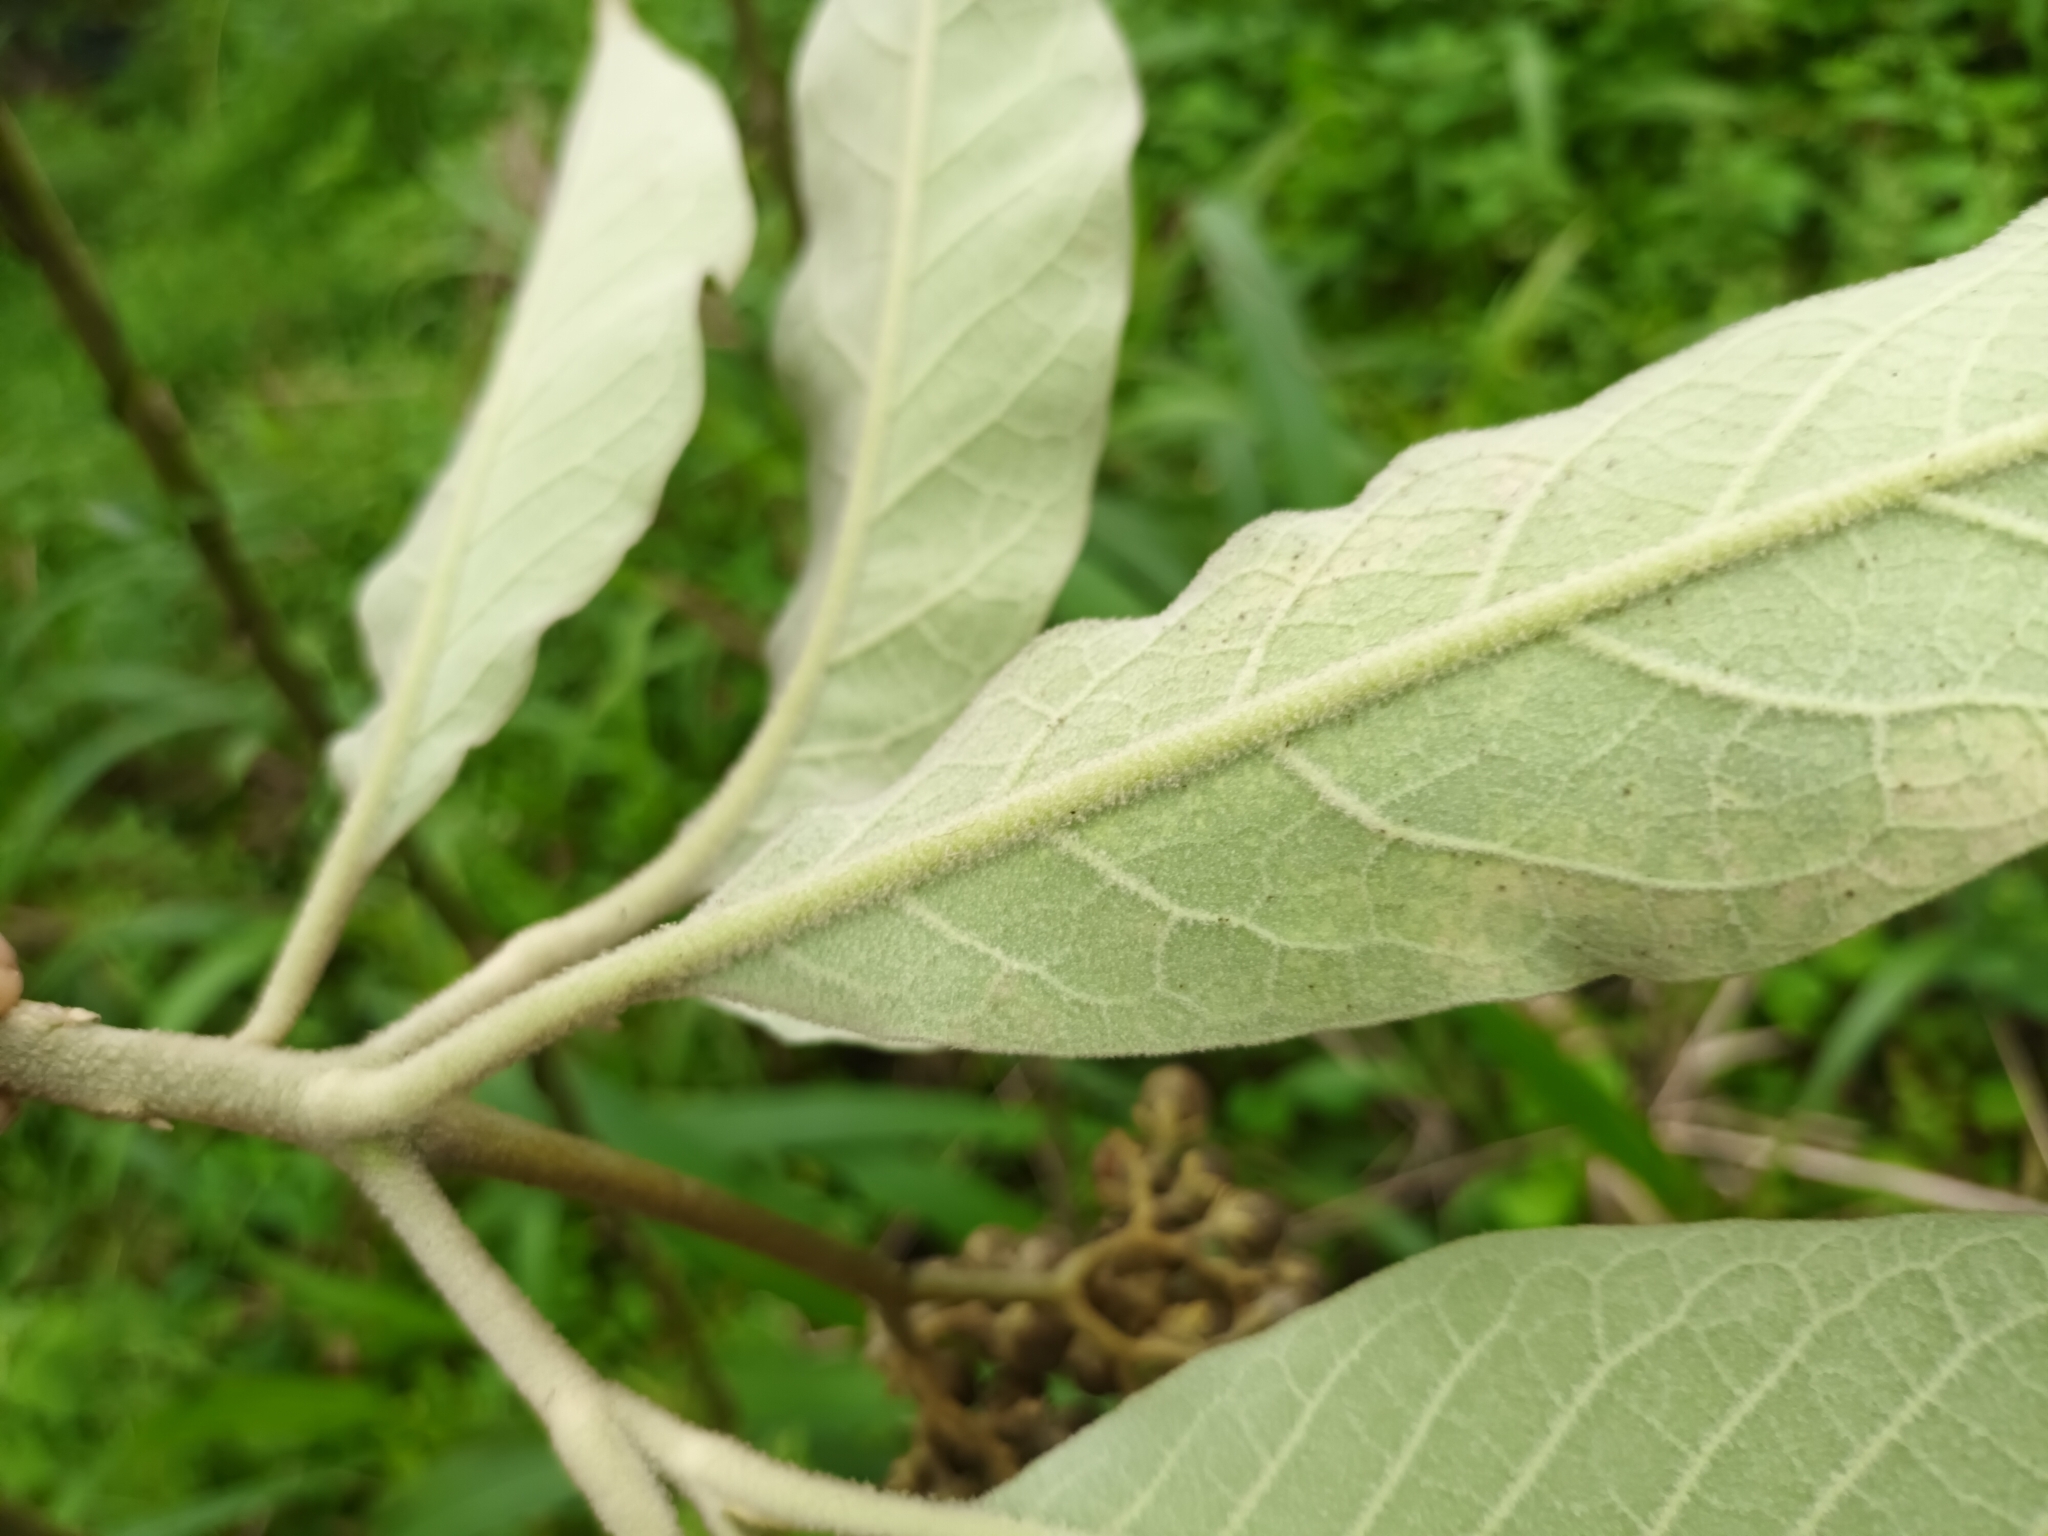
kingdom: Plantae
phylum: Tracheophyta
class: Magnoliopsida
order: Solanales
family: Solanaceae
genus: Solanum
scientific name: Solanum mauritianum
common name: Earleaf nightshade
